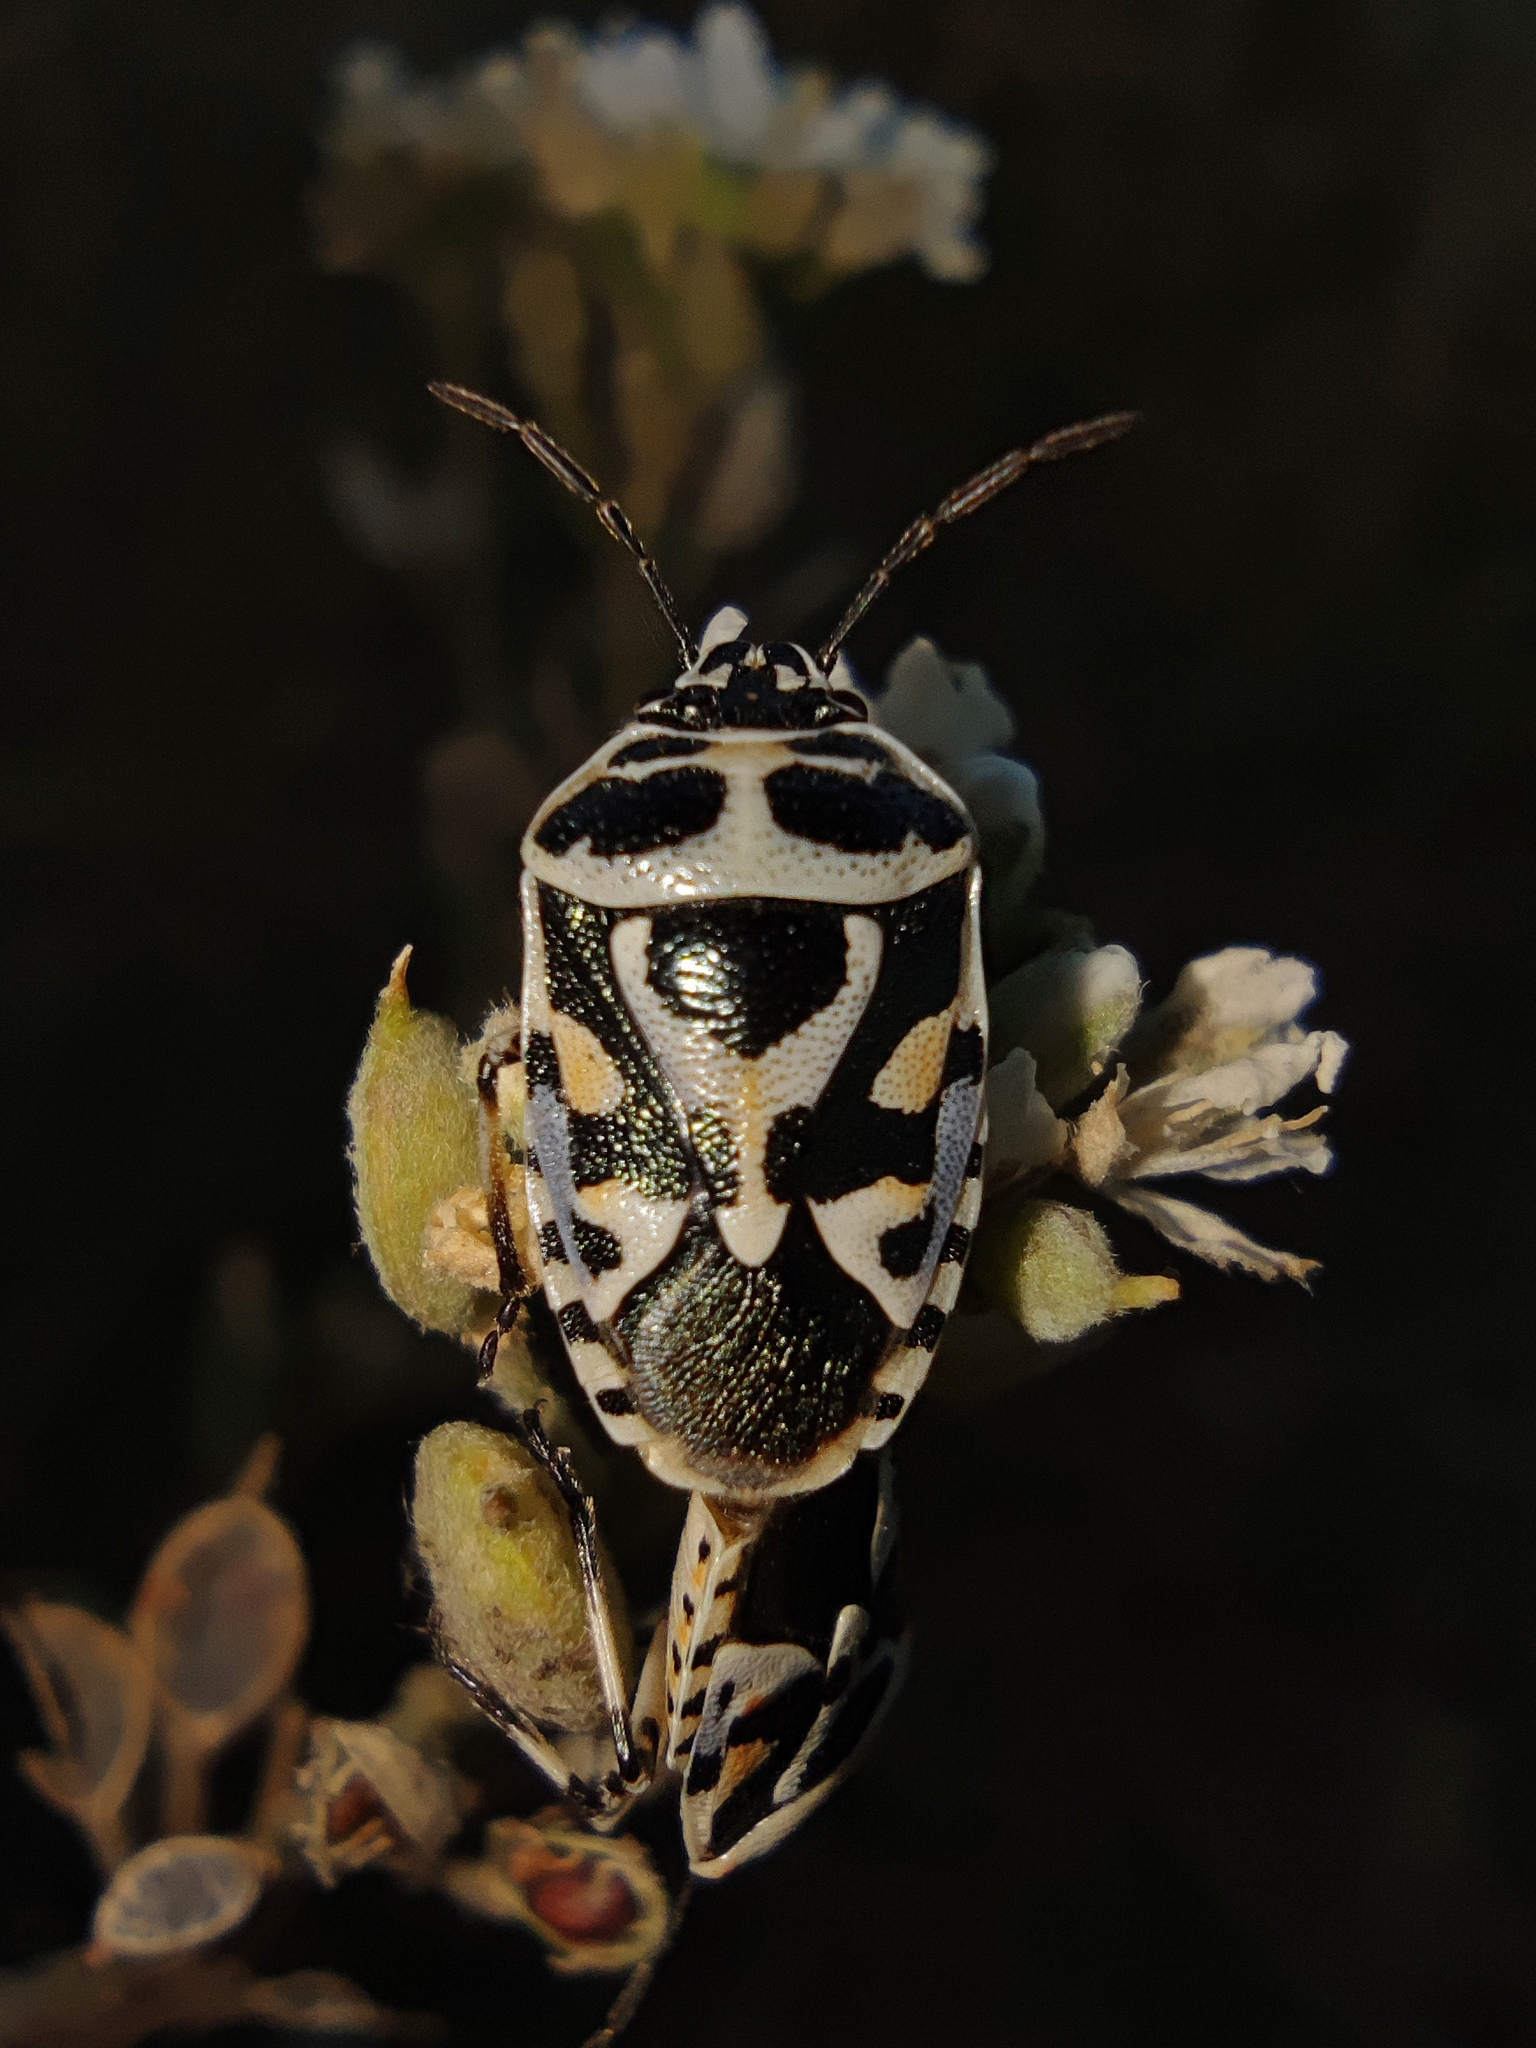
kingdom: Animalia
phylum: Arthropoda
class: Insecta
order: Hemiptera
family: Pentatomidae
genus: Eurydema
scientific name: Eurydema ornata
